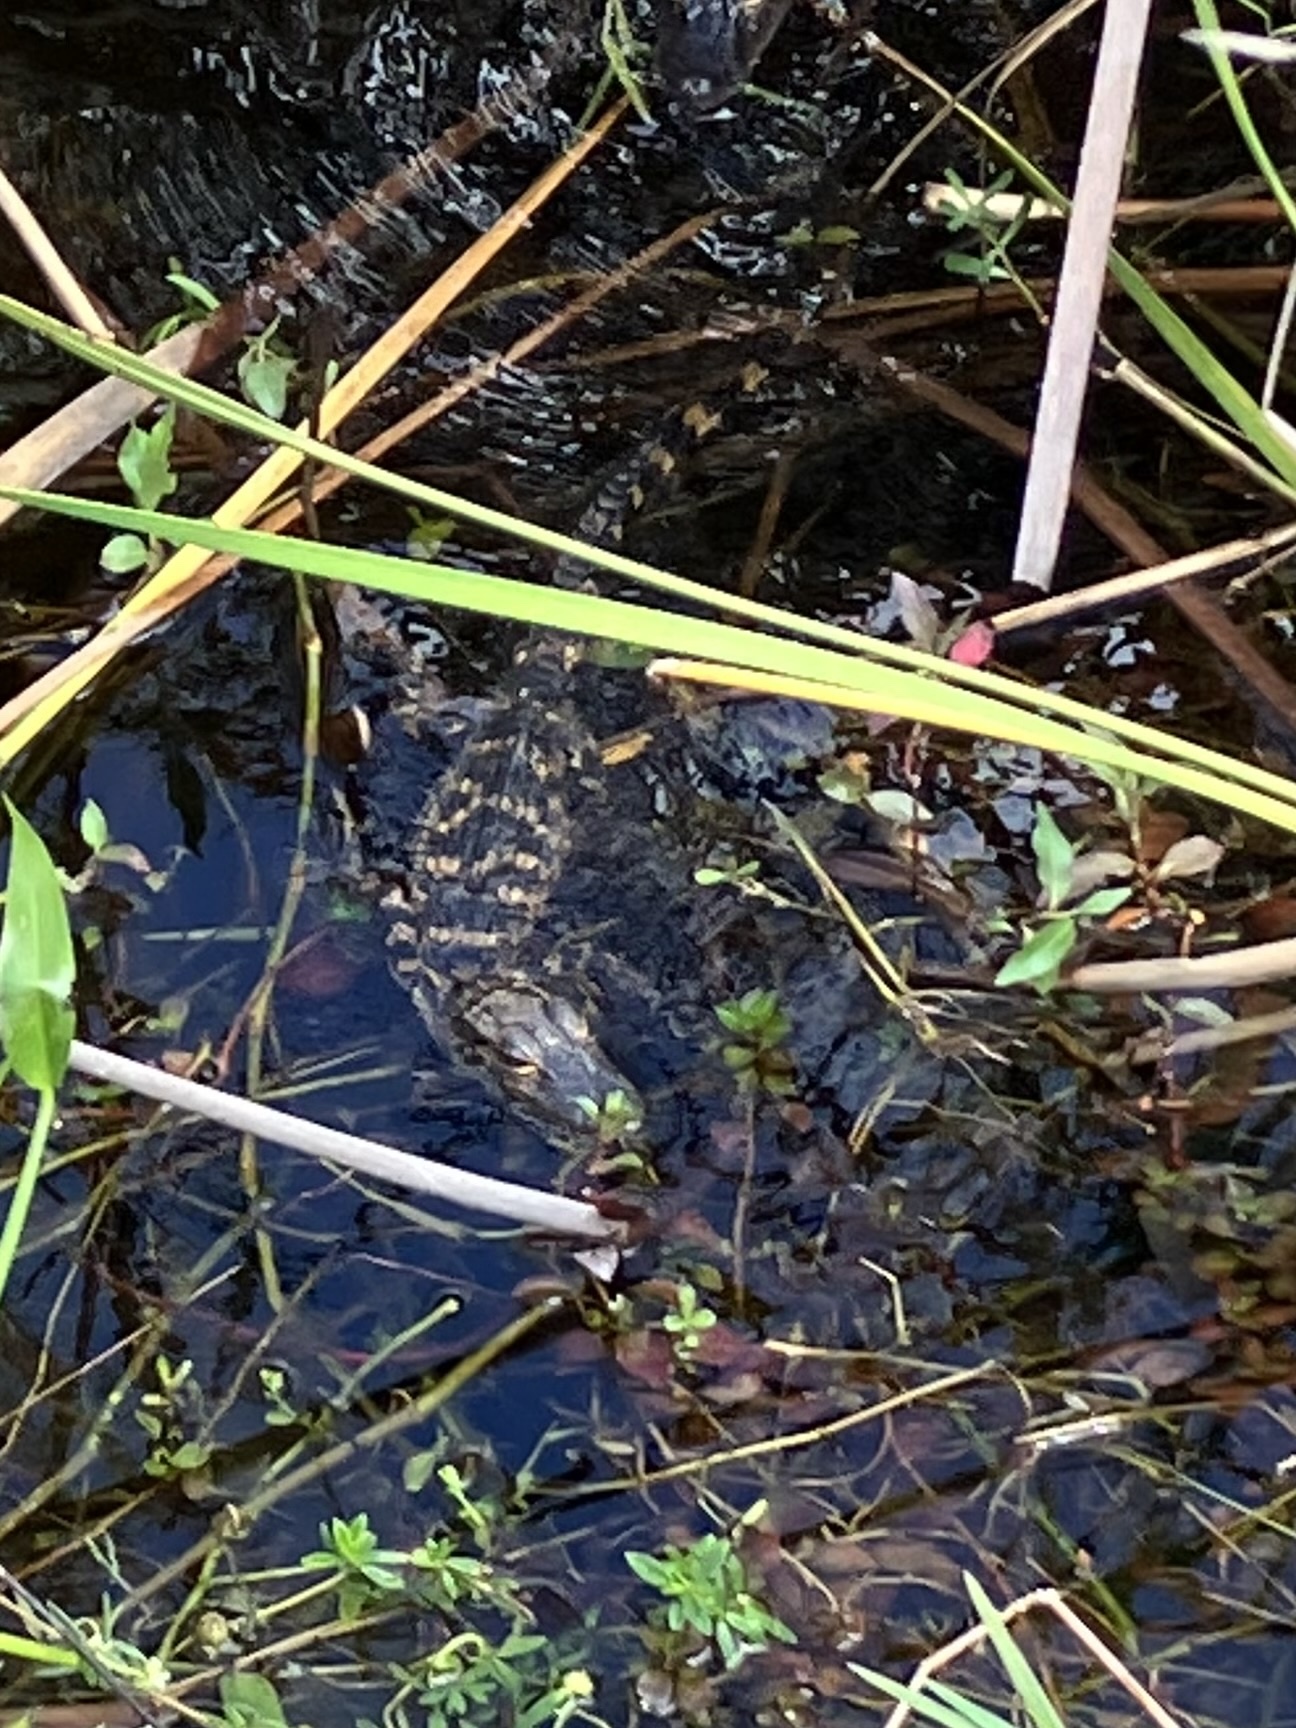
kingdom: Animalia
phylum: Chordata
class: Crocodylia
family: Alligatoridae
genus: Alligator
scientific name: Alligator mississippiensis
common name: American alligator
